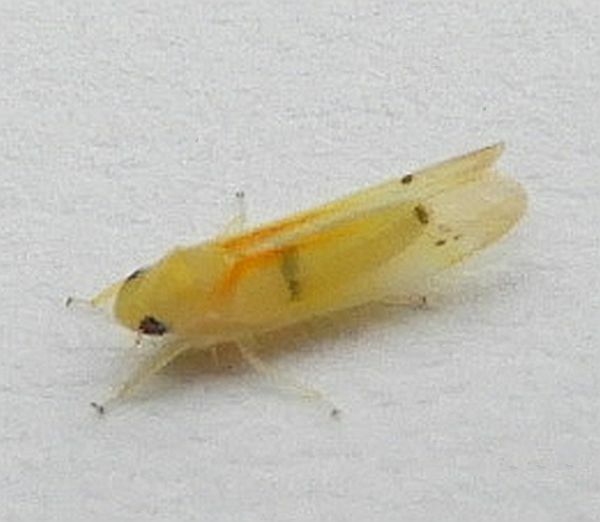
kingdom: Animalia
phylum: Arthropoda
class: Insecta
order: Hemiptera
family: Cicadellidae
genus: Ossiannilssonola
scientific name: Ossiannilssonola australis
